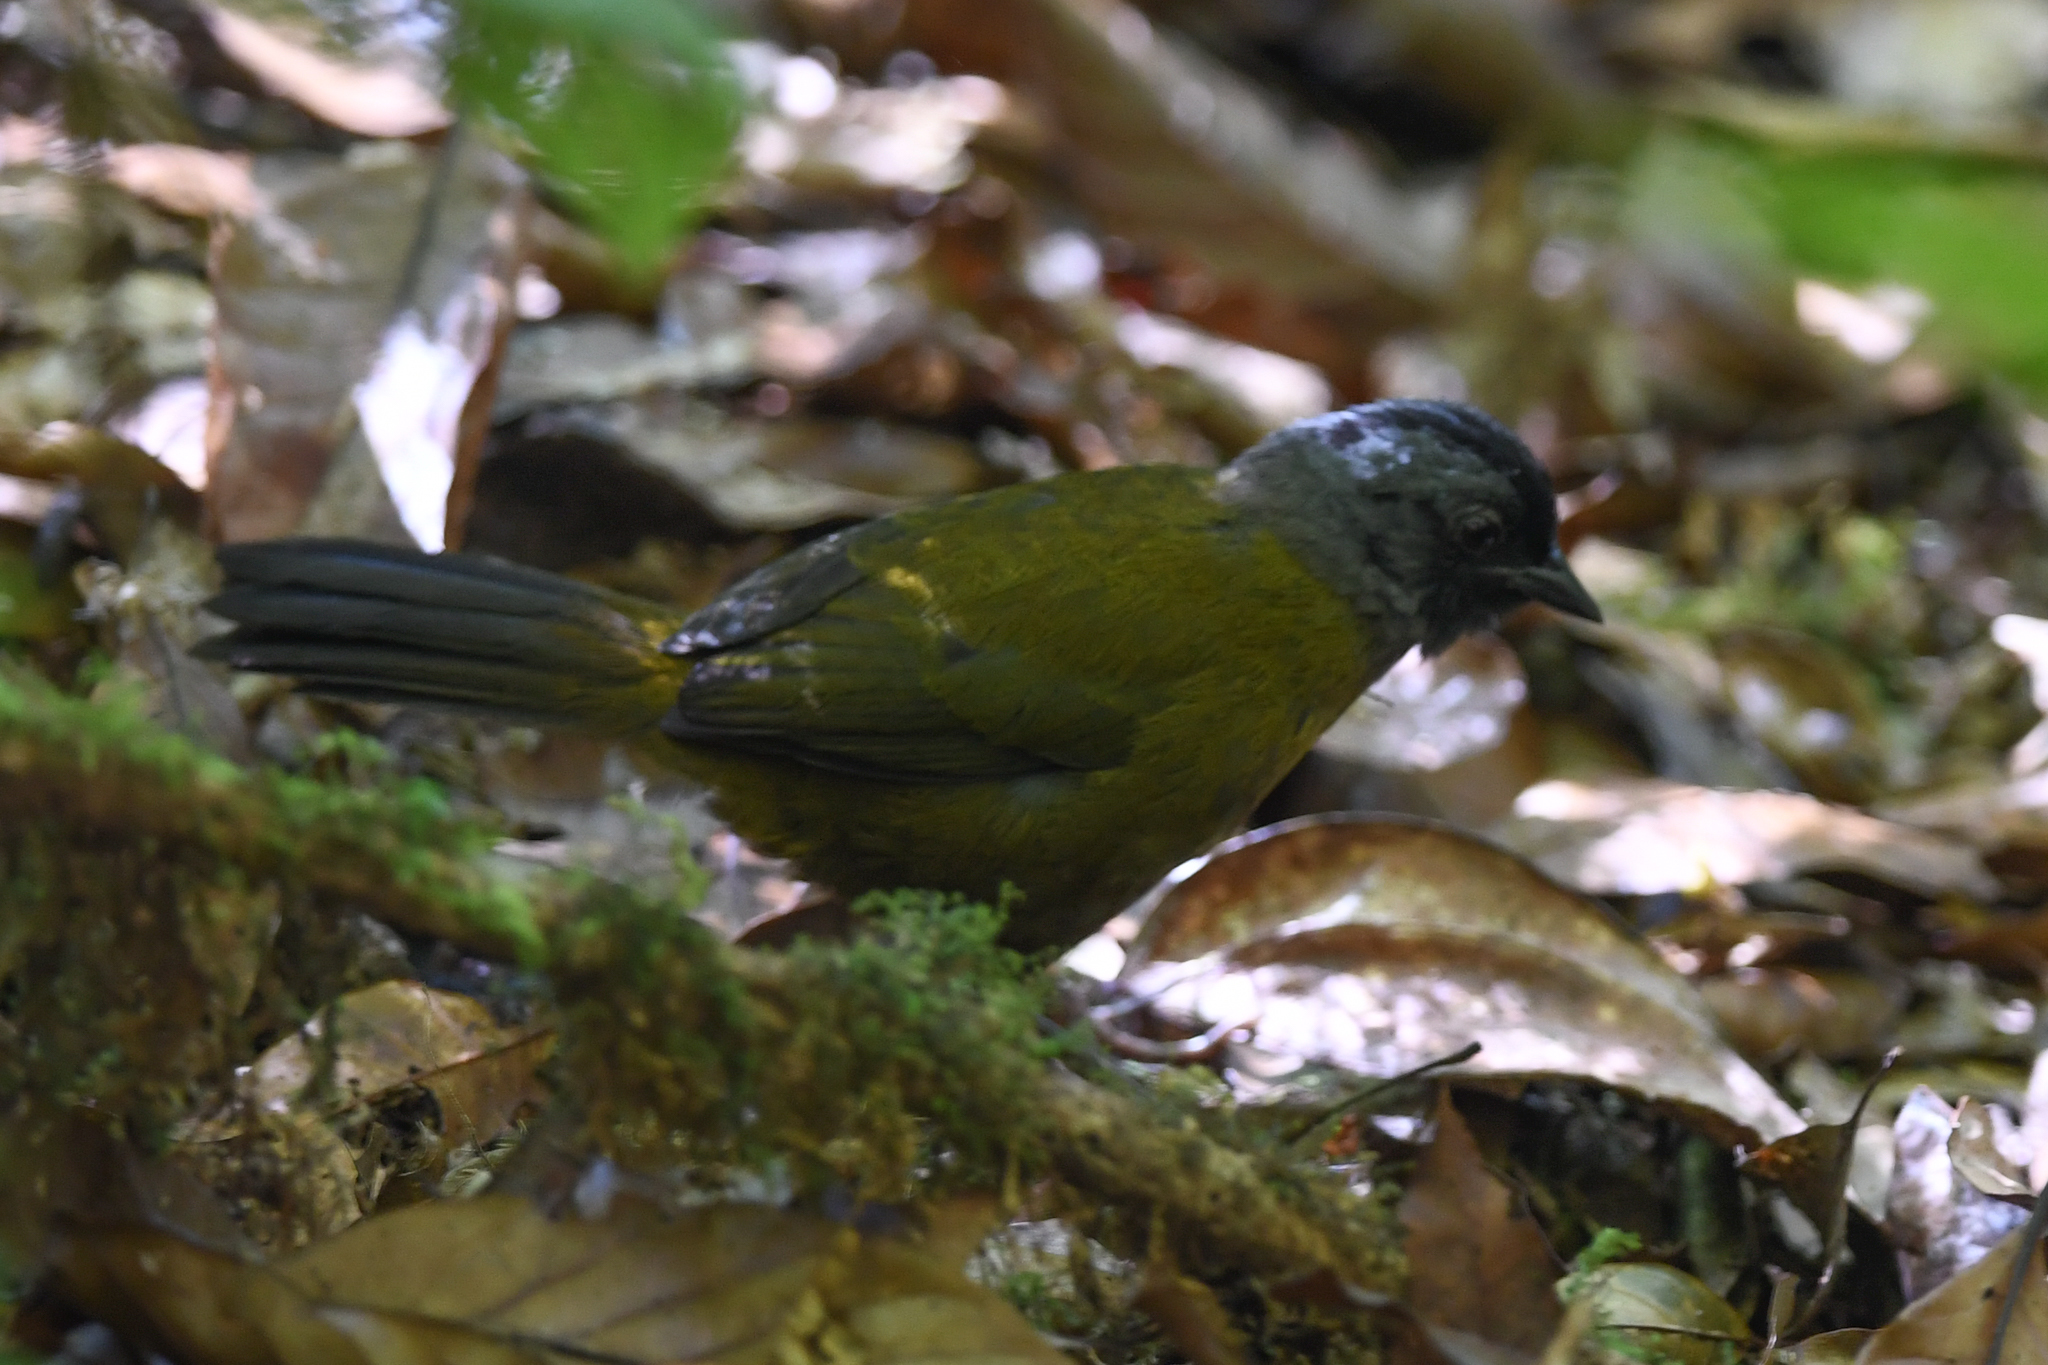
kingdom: Animalia
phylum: Chordata
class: Aves
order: Passeriformes
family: Passerellidae
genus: Pezopetes
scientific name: Pezopetes capitalis
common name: Large-footed finch
